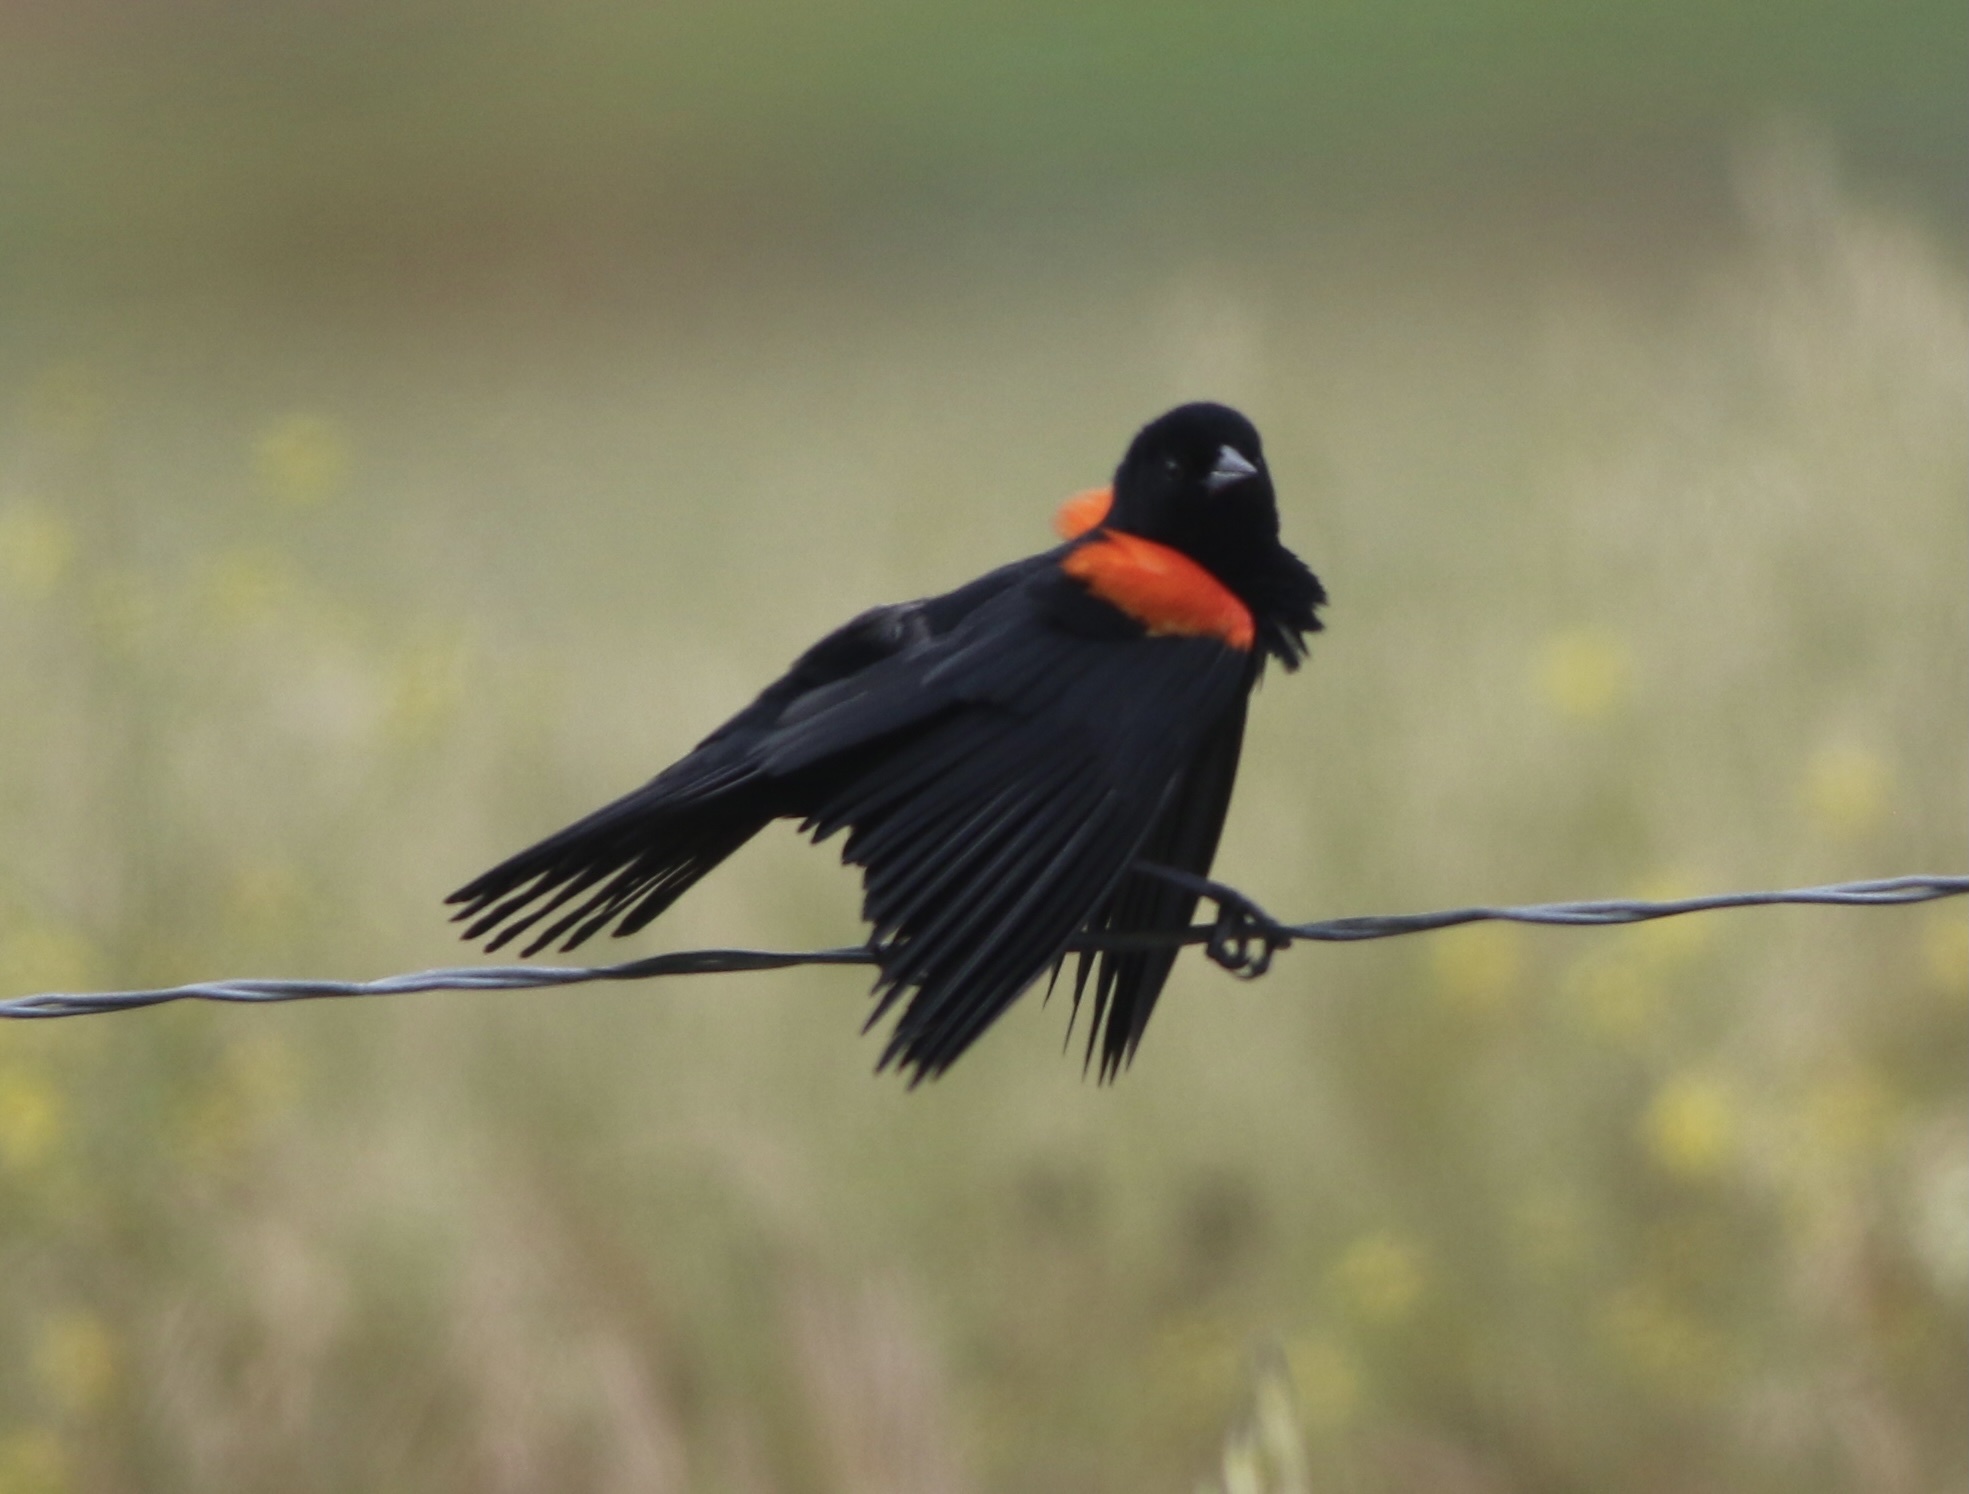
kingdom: Animalia
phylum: Chordata
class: Aves
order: Passeriformes
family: Icteridae
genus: Agelaius
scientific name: Agelaius phoeniceus
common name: Red-winged blackbird
